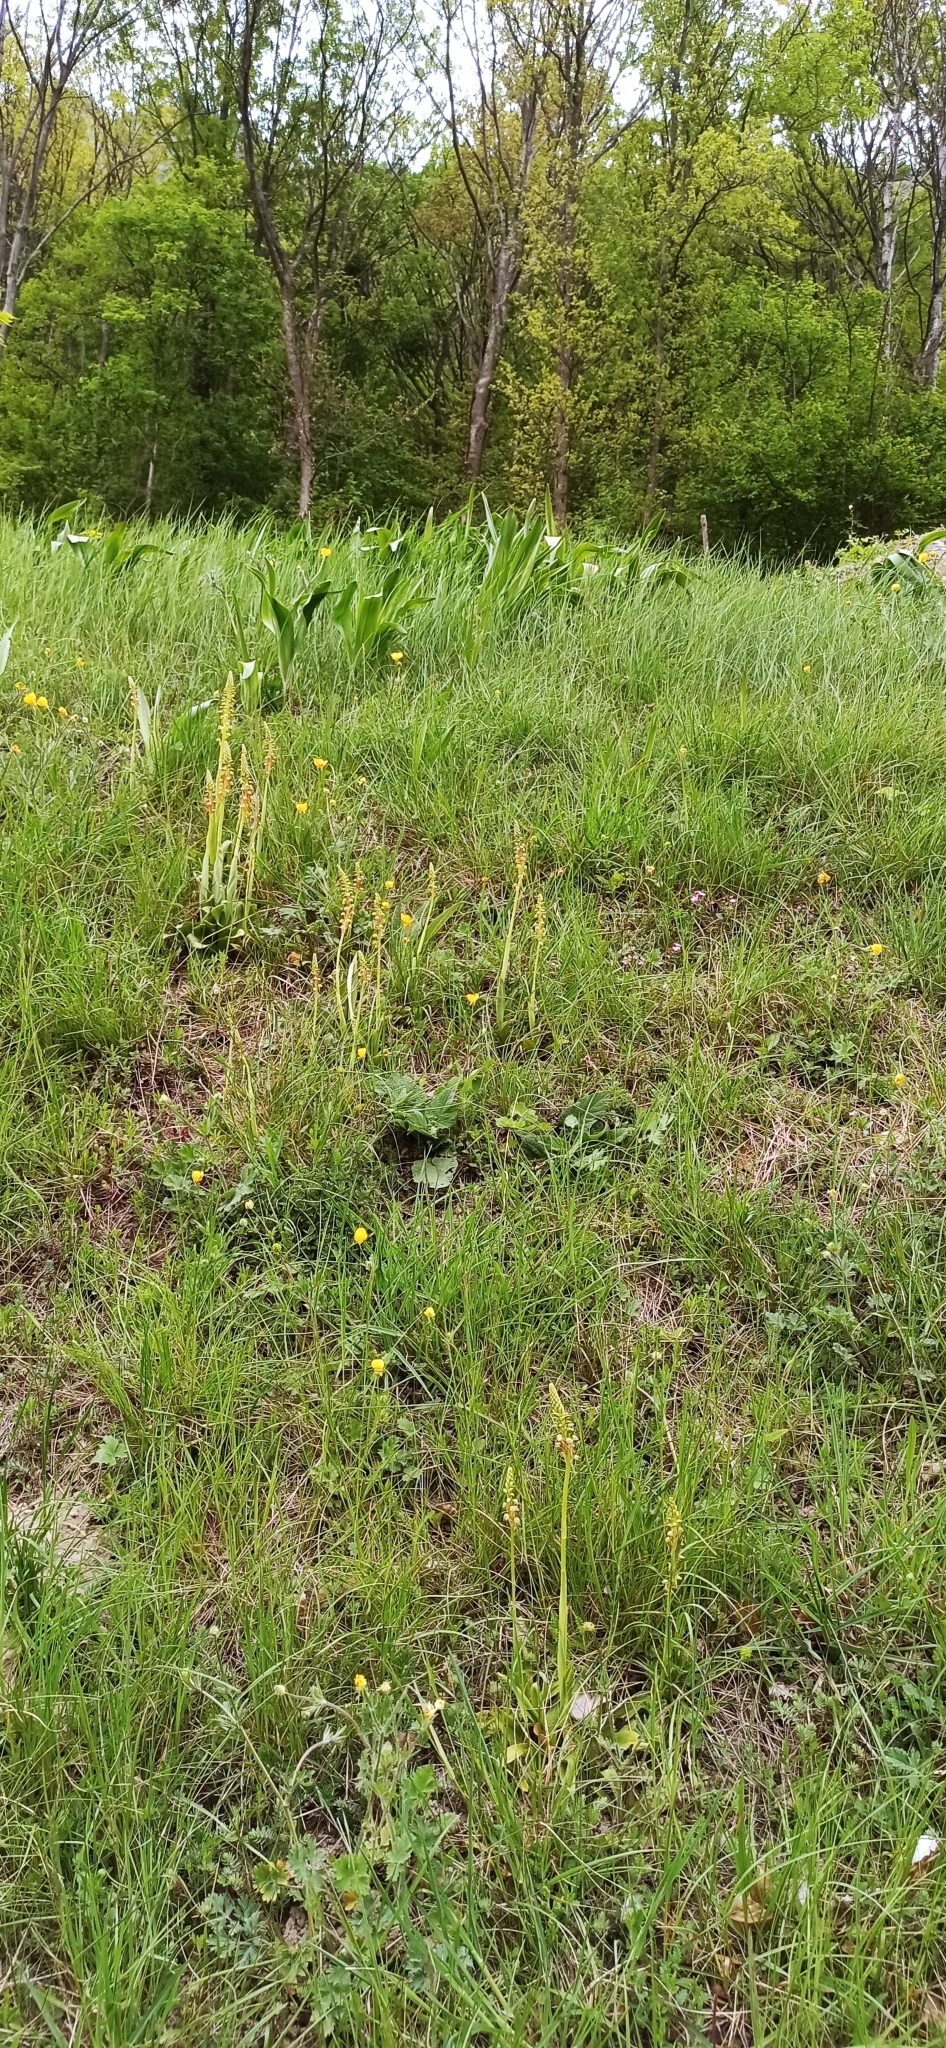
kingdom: Plantae
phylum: Tracheophyta
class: Liliopsida
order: Asparagales
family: Orchidaceae
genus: Orchis
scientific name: Orchis anthropophora
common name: Man orchid
